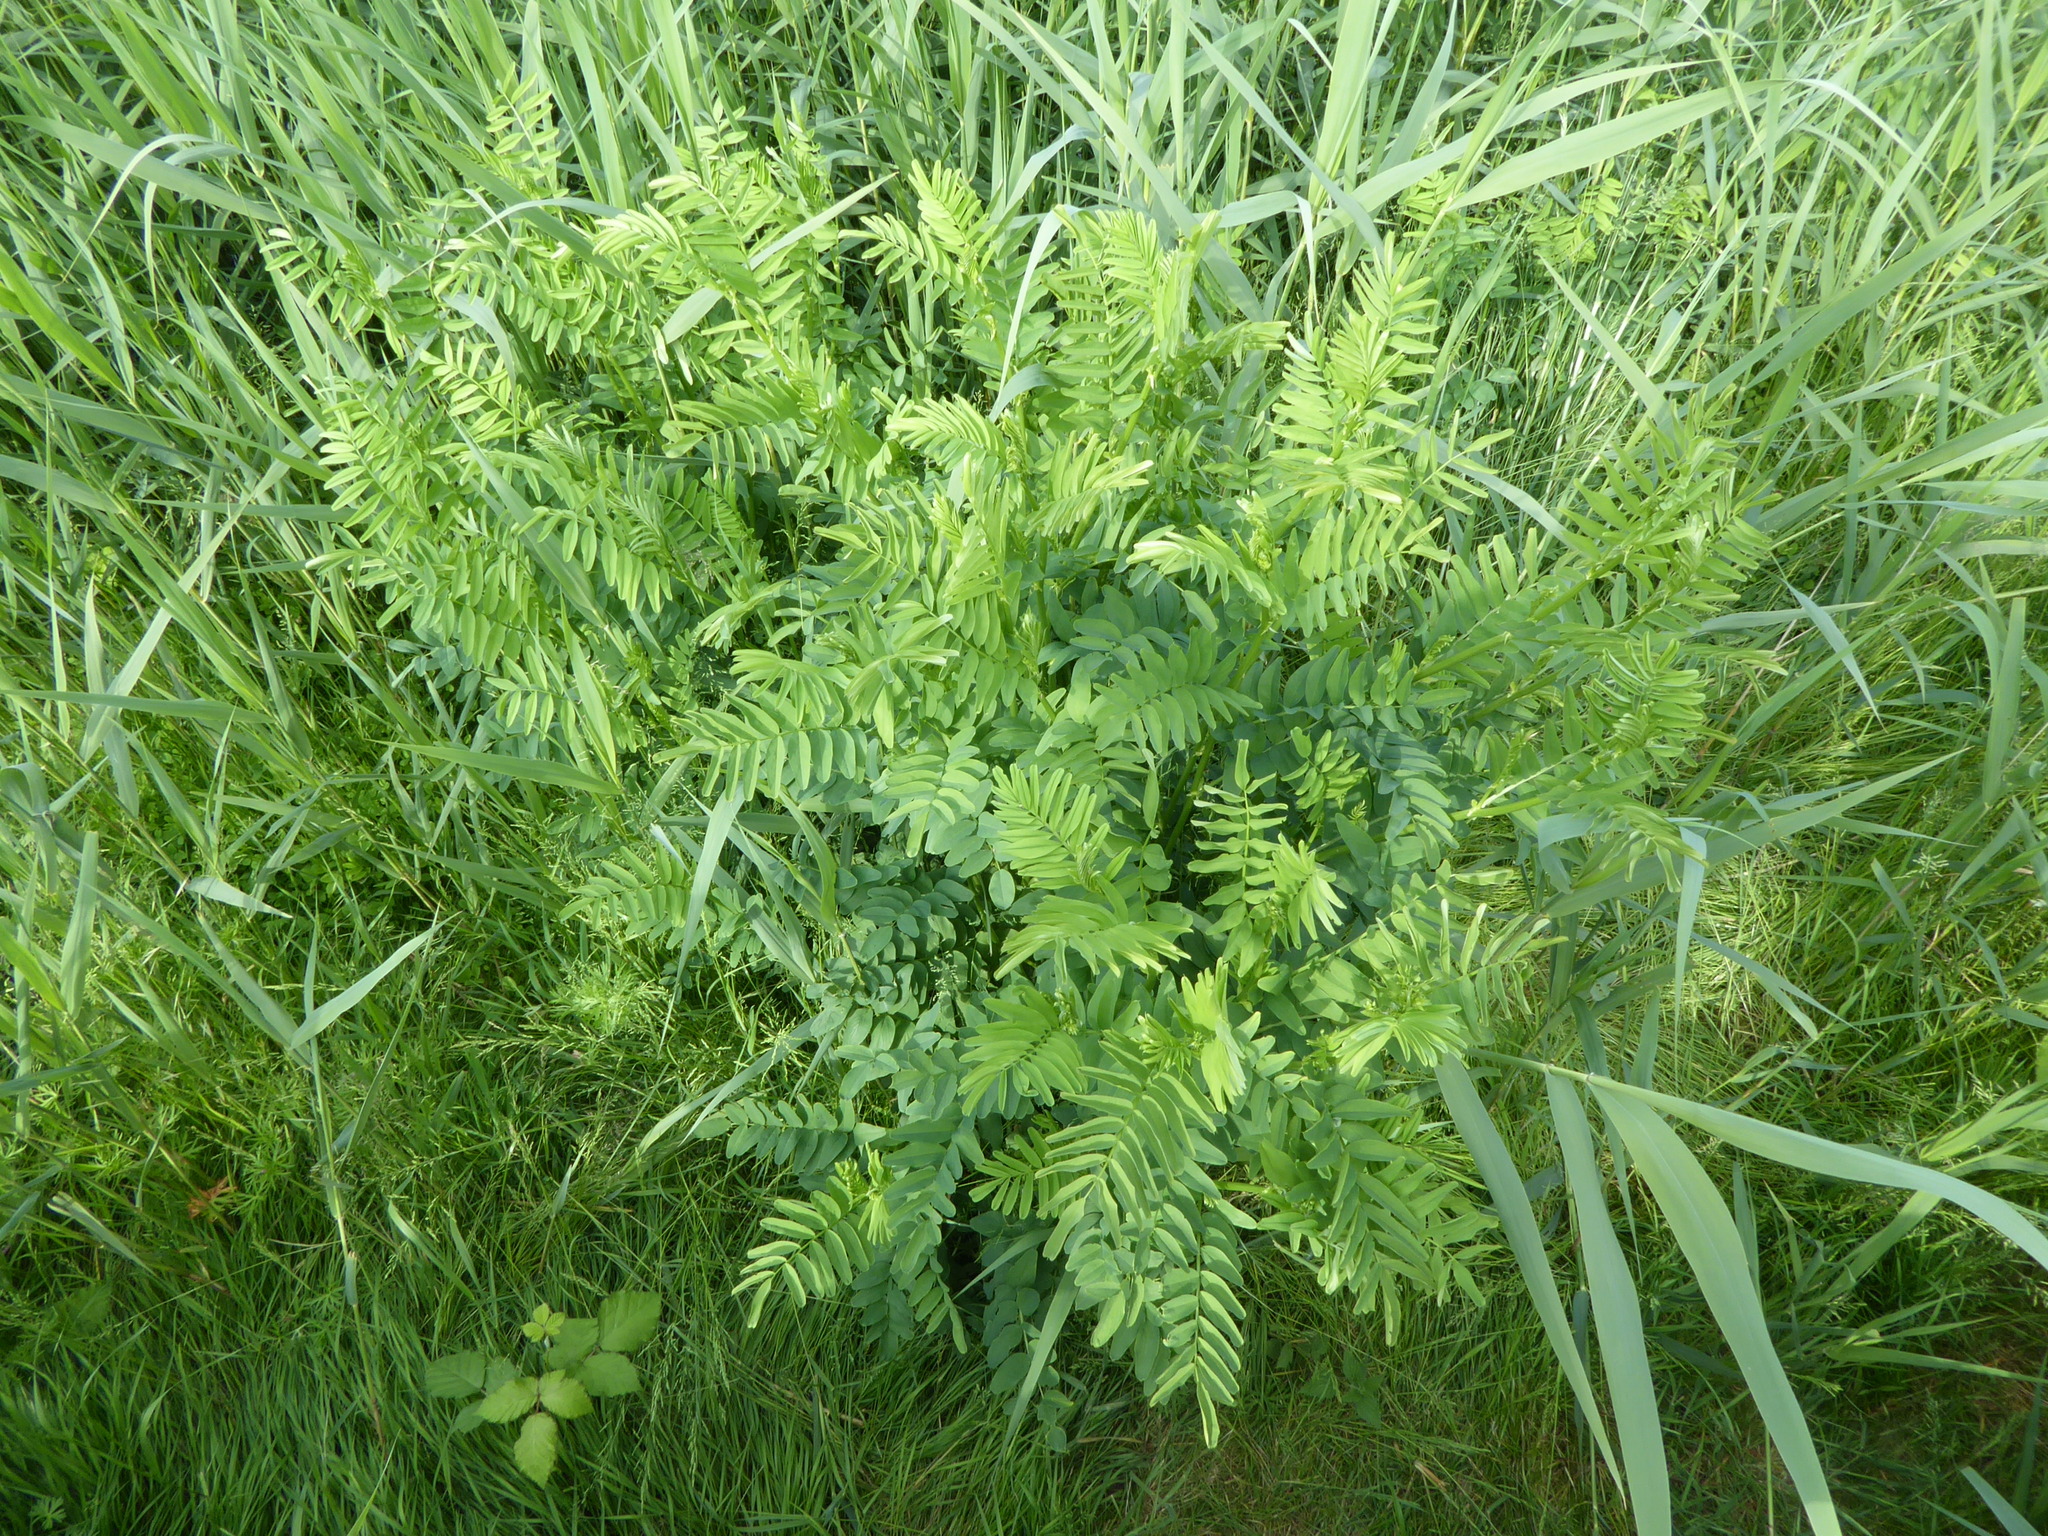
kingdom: Plantae
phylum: Tracheophyta
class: Magnoliopsida
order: Fabales
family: Fabaceae
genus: Galega
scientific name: Galega officinalis
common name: Goat's-rue
